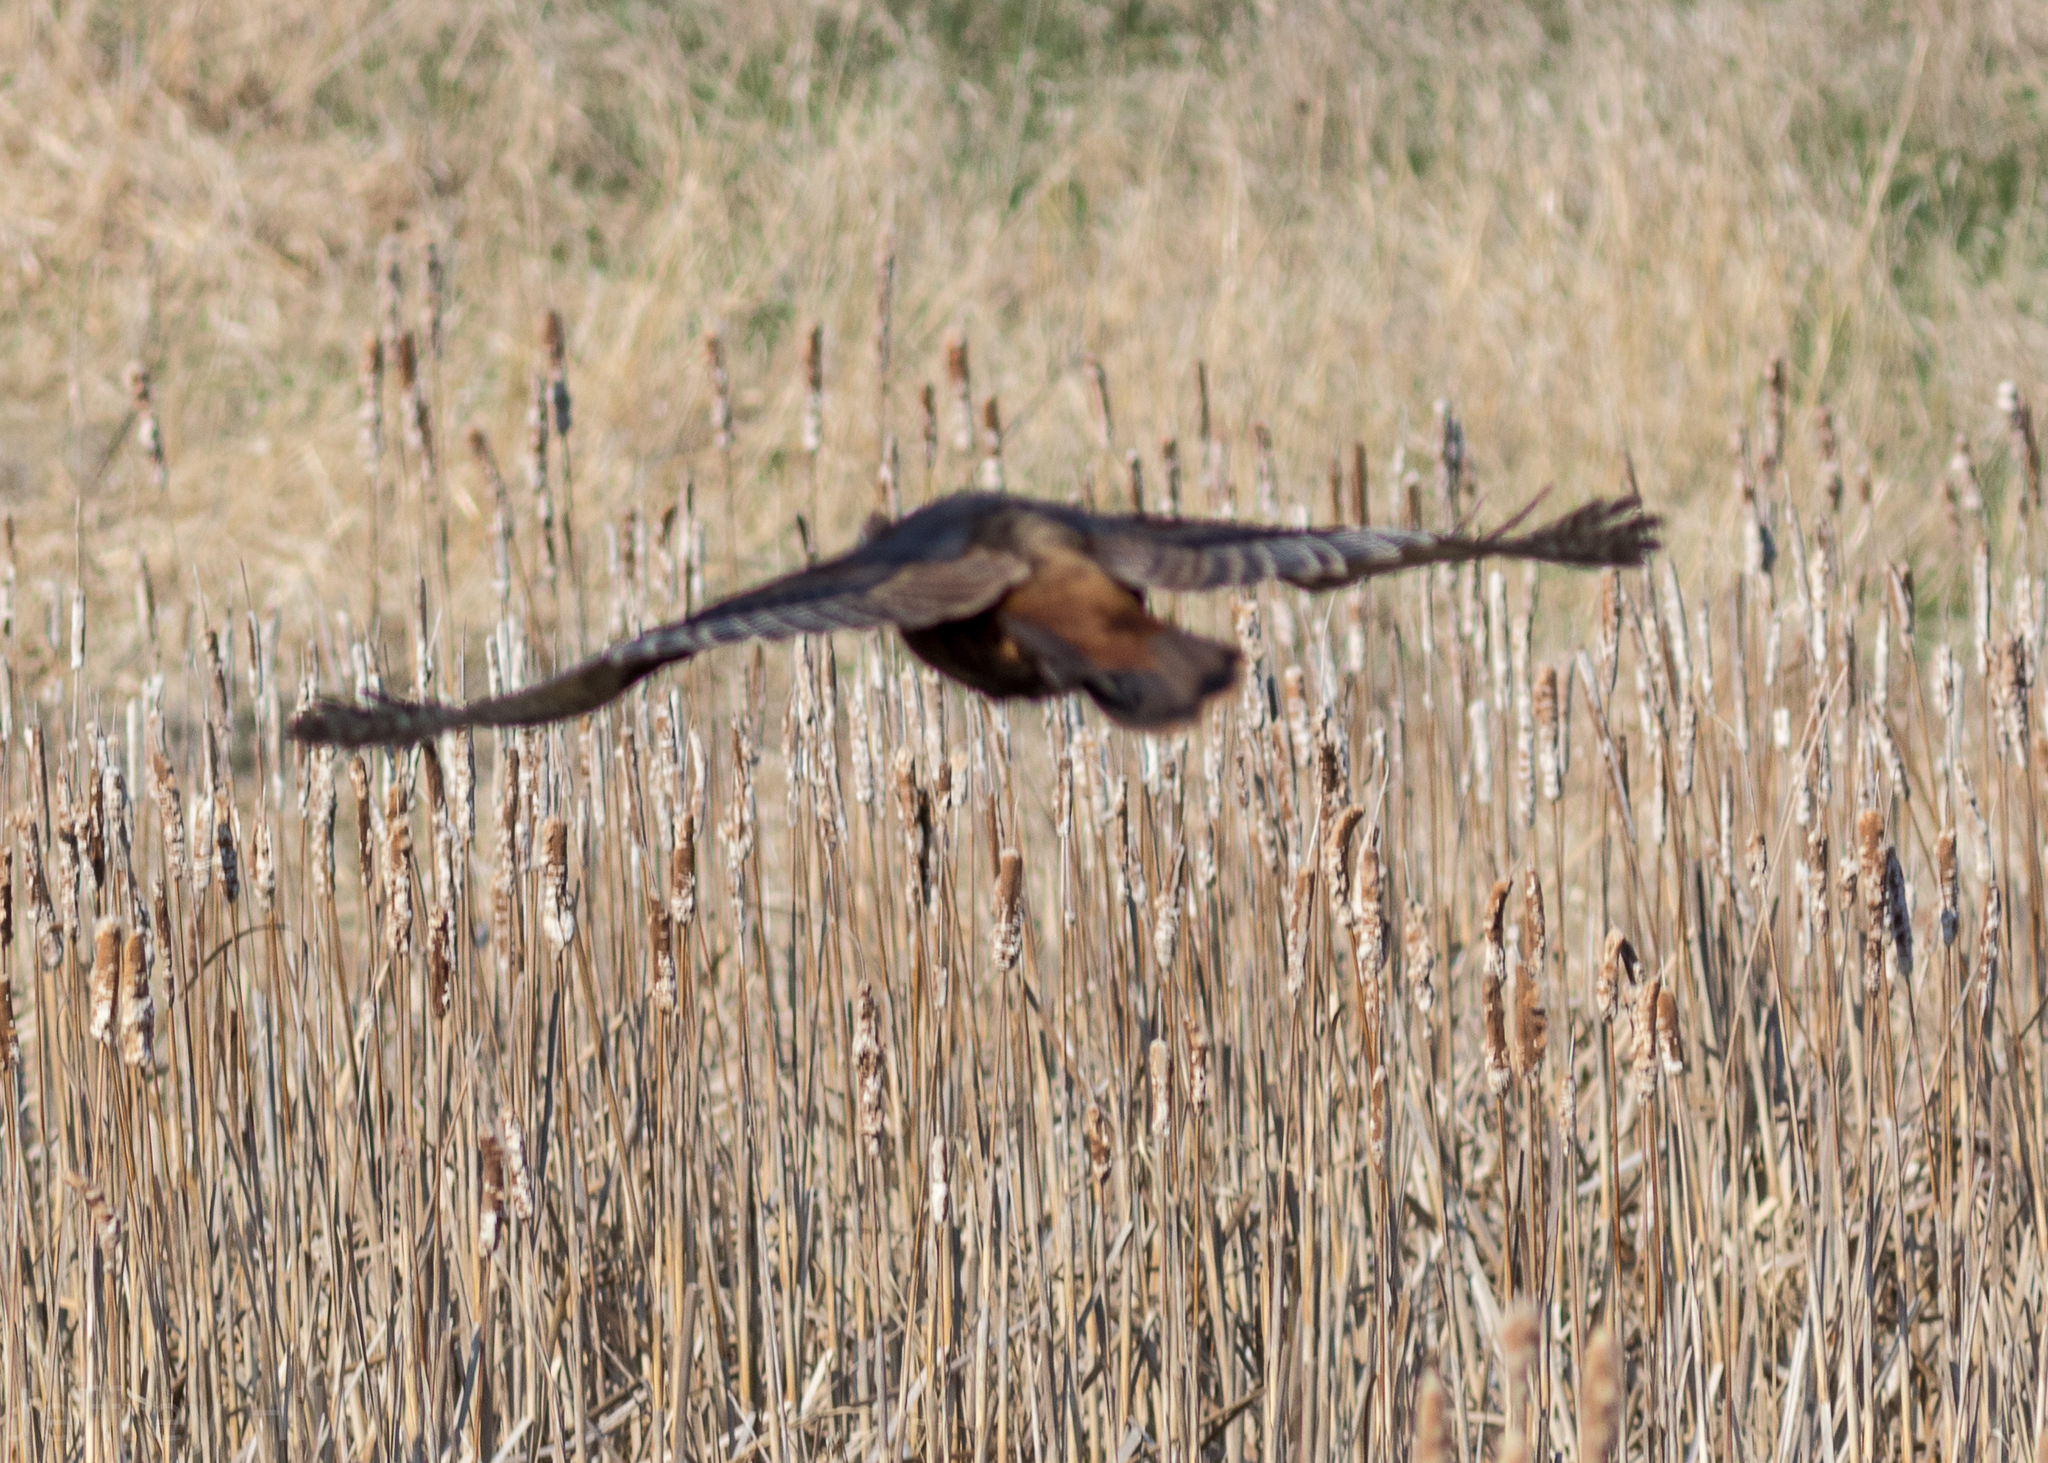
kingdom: Animalia
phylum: Chordata
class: Aves
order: Galliformes
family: Phasianidae
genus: Phasianus
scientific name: Phasianus colchicus
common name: Common pheasant
